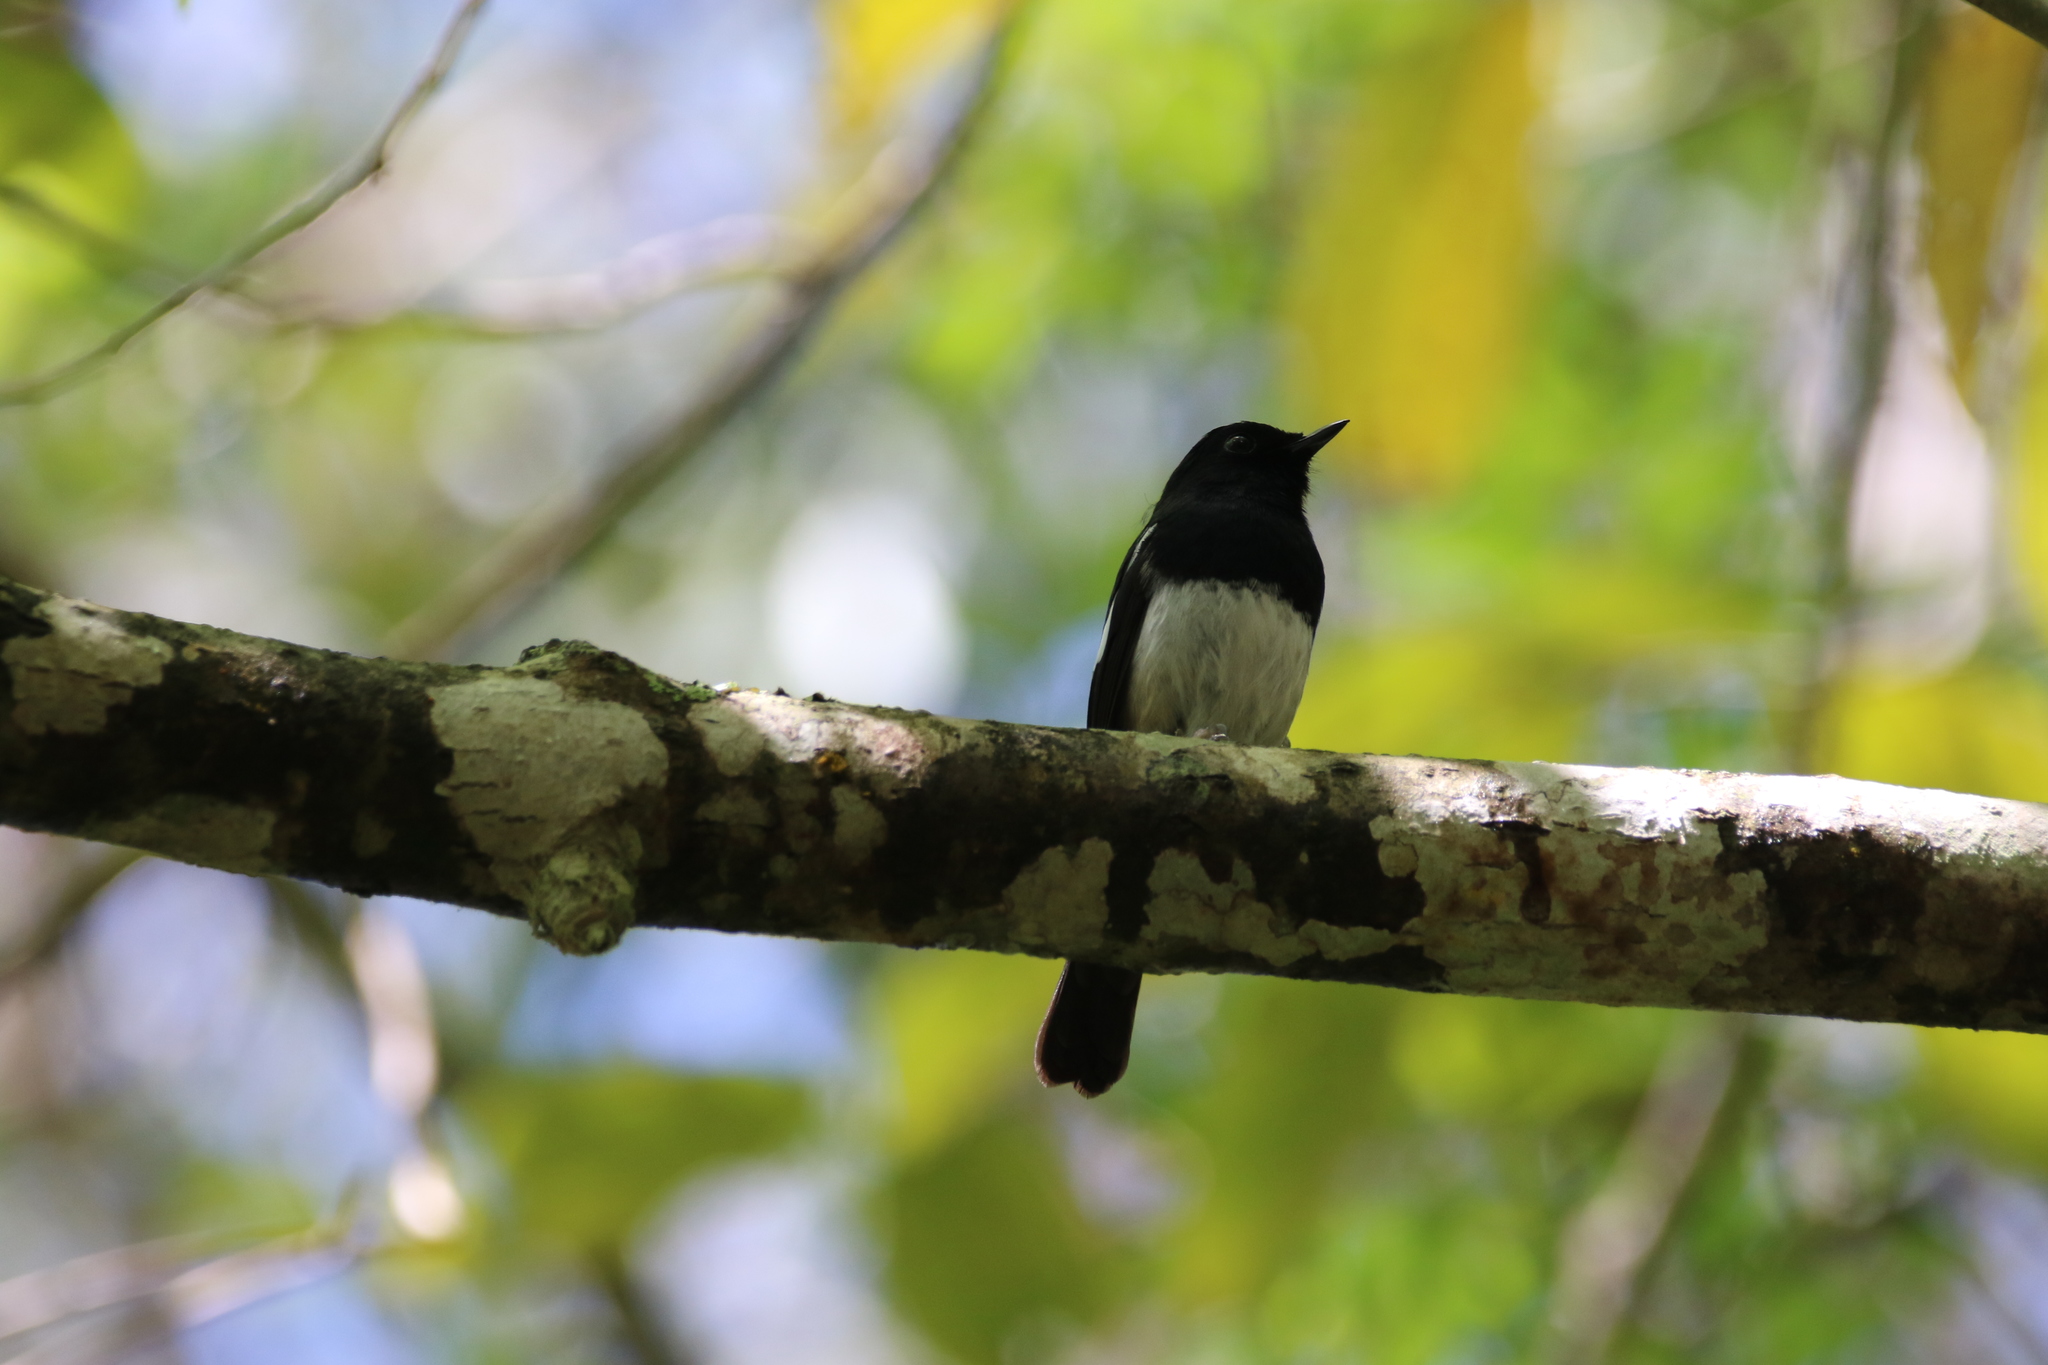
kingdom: Animalia
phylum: Chordata
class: Aves
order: Passeriformes
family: Muscicapidae
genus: Copsychus
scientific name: Copsychus albospecularis
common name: Madagascar magpie-robin
